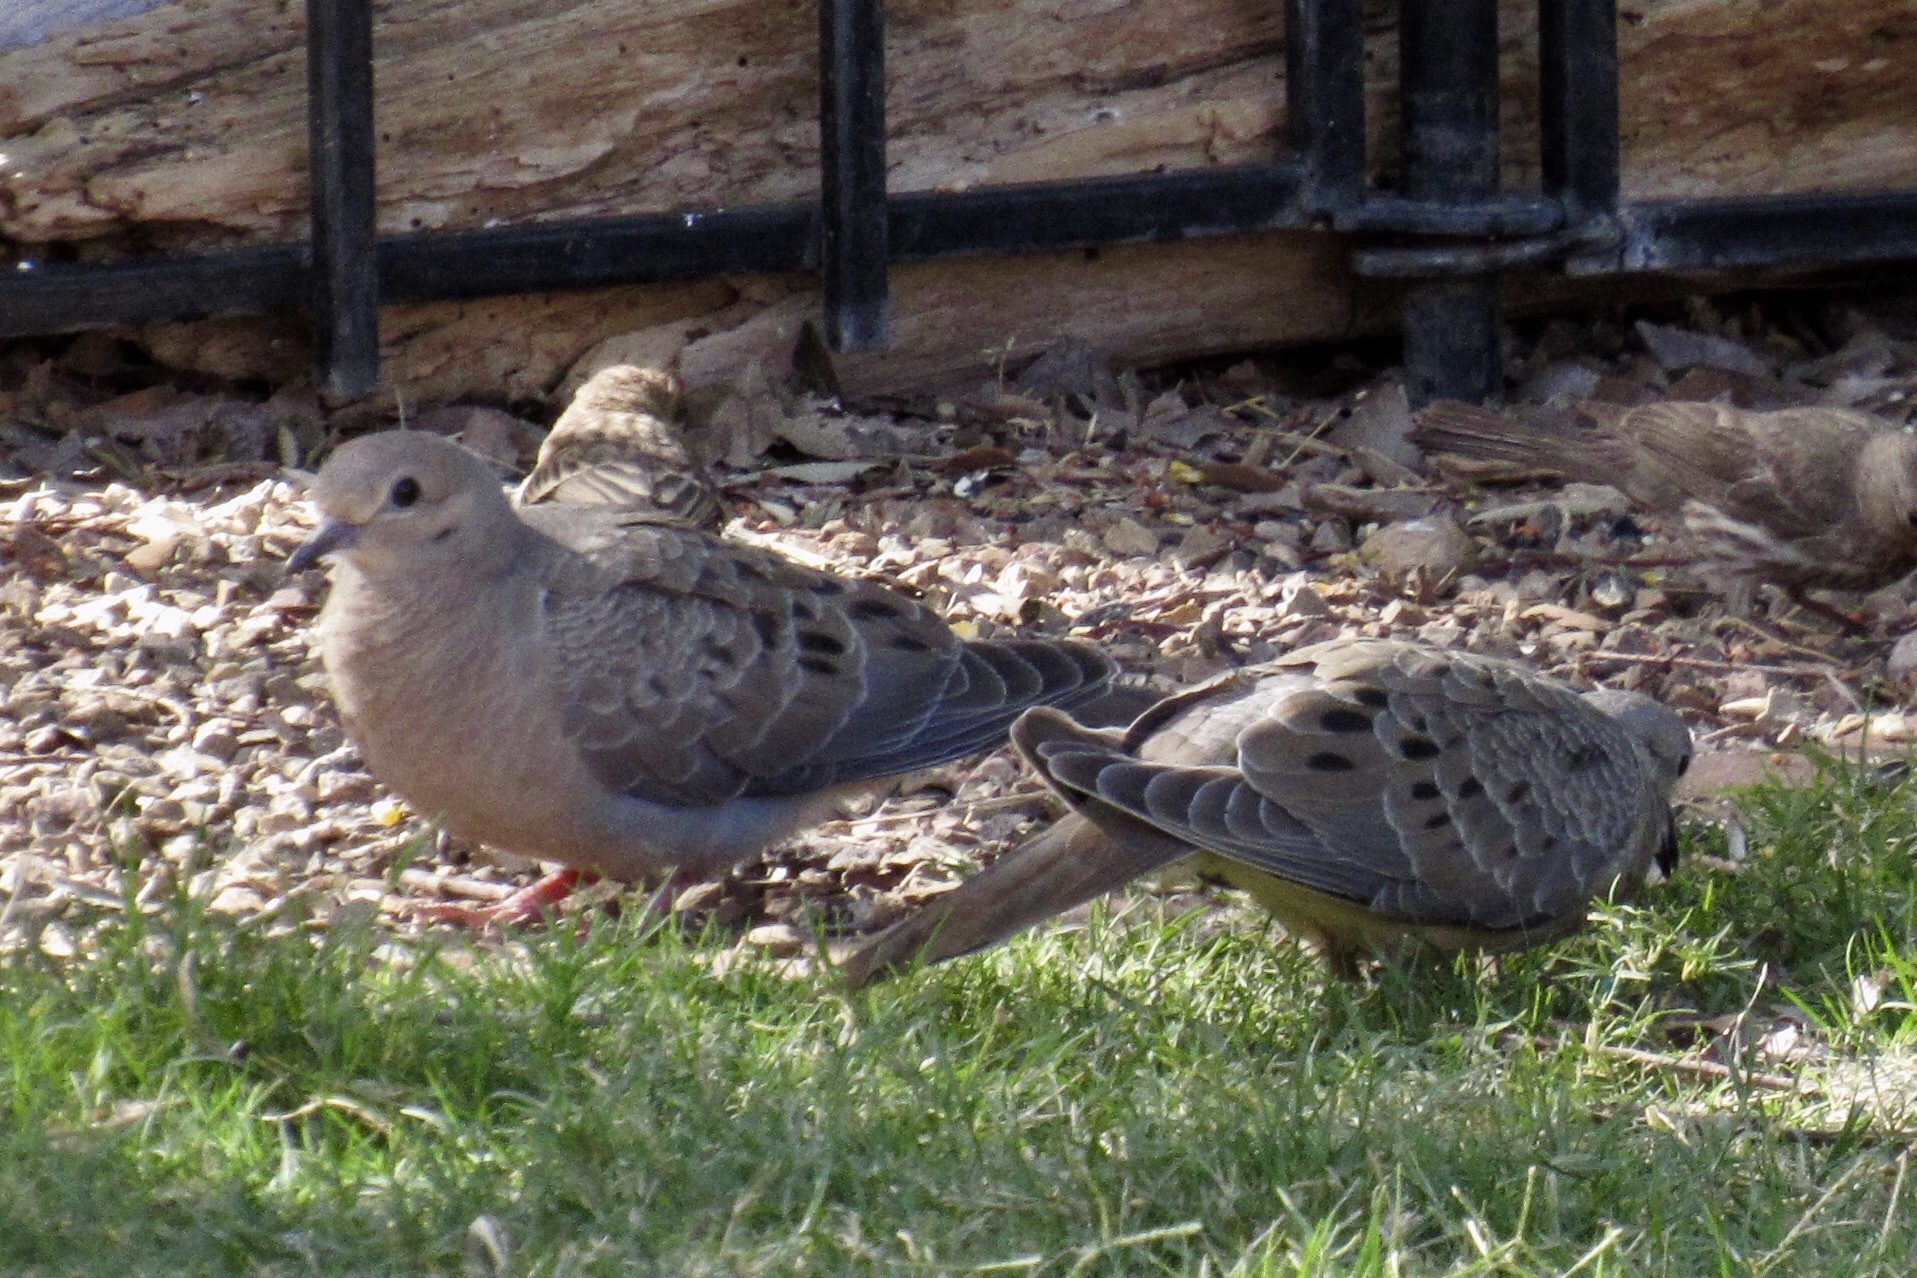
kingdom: Animalia
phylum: Chordata
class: Aves
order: Columbiformes
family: Columbidae
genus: Zenaida
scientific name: Zenaida macroura
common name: Mourning dove
